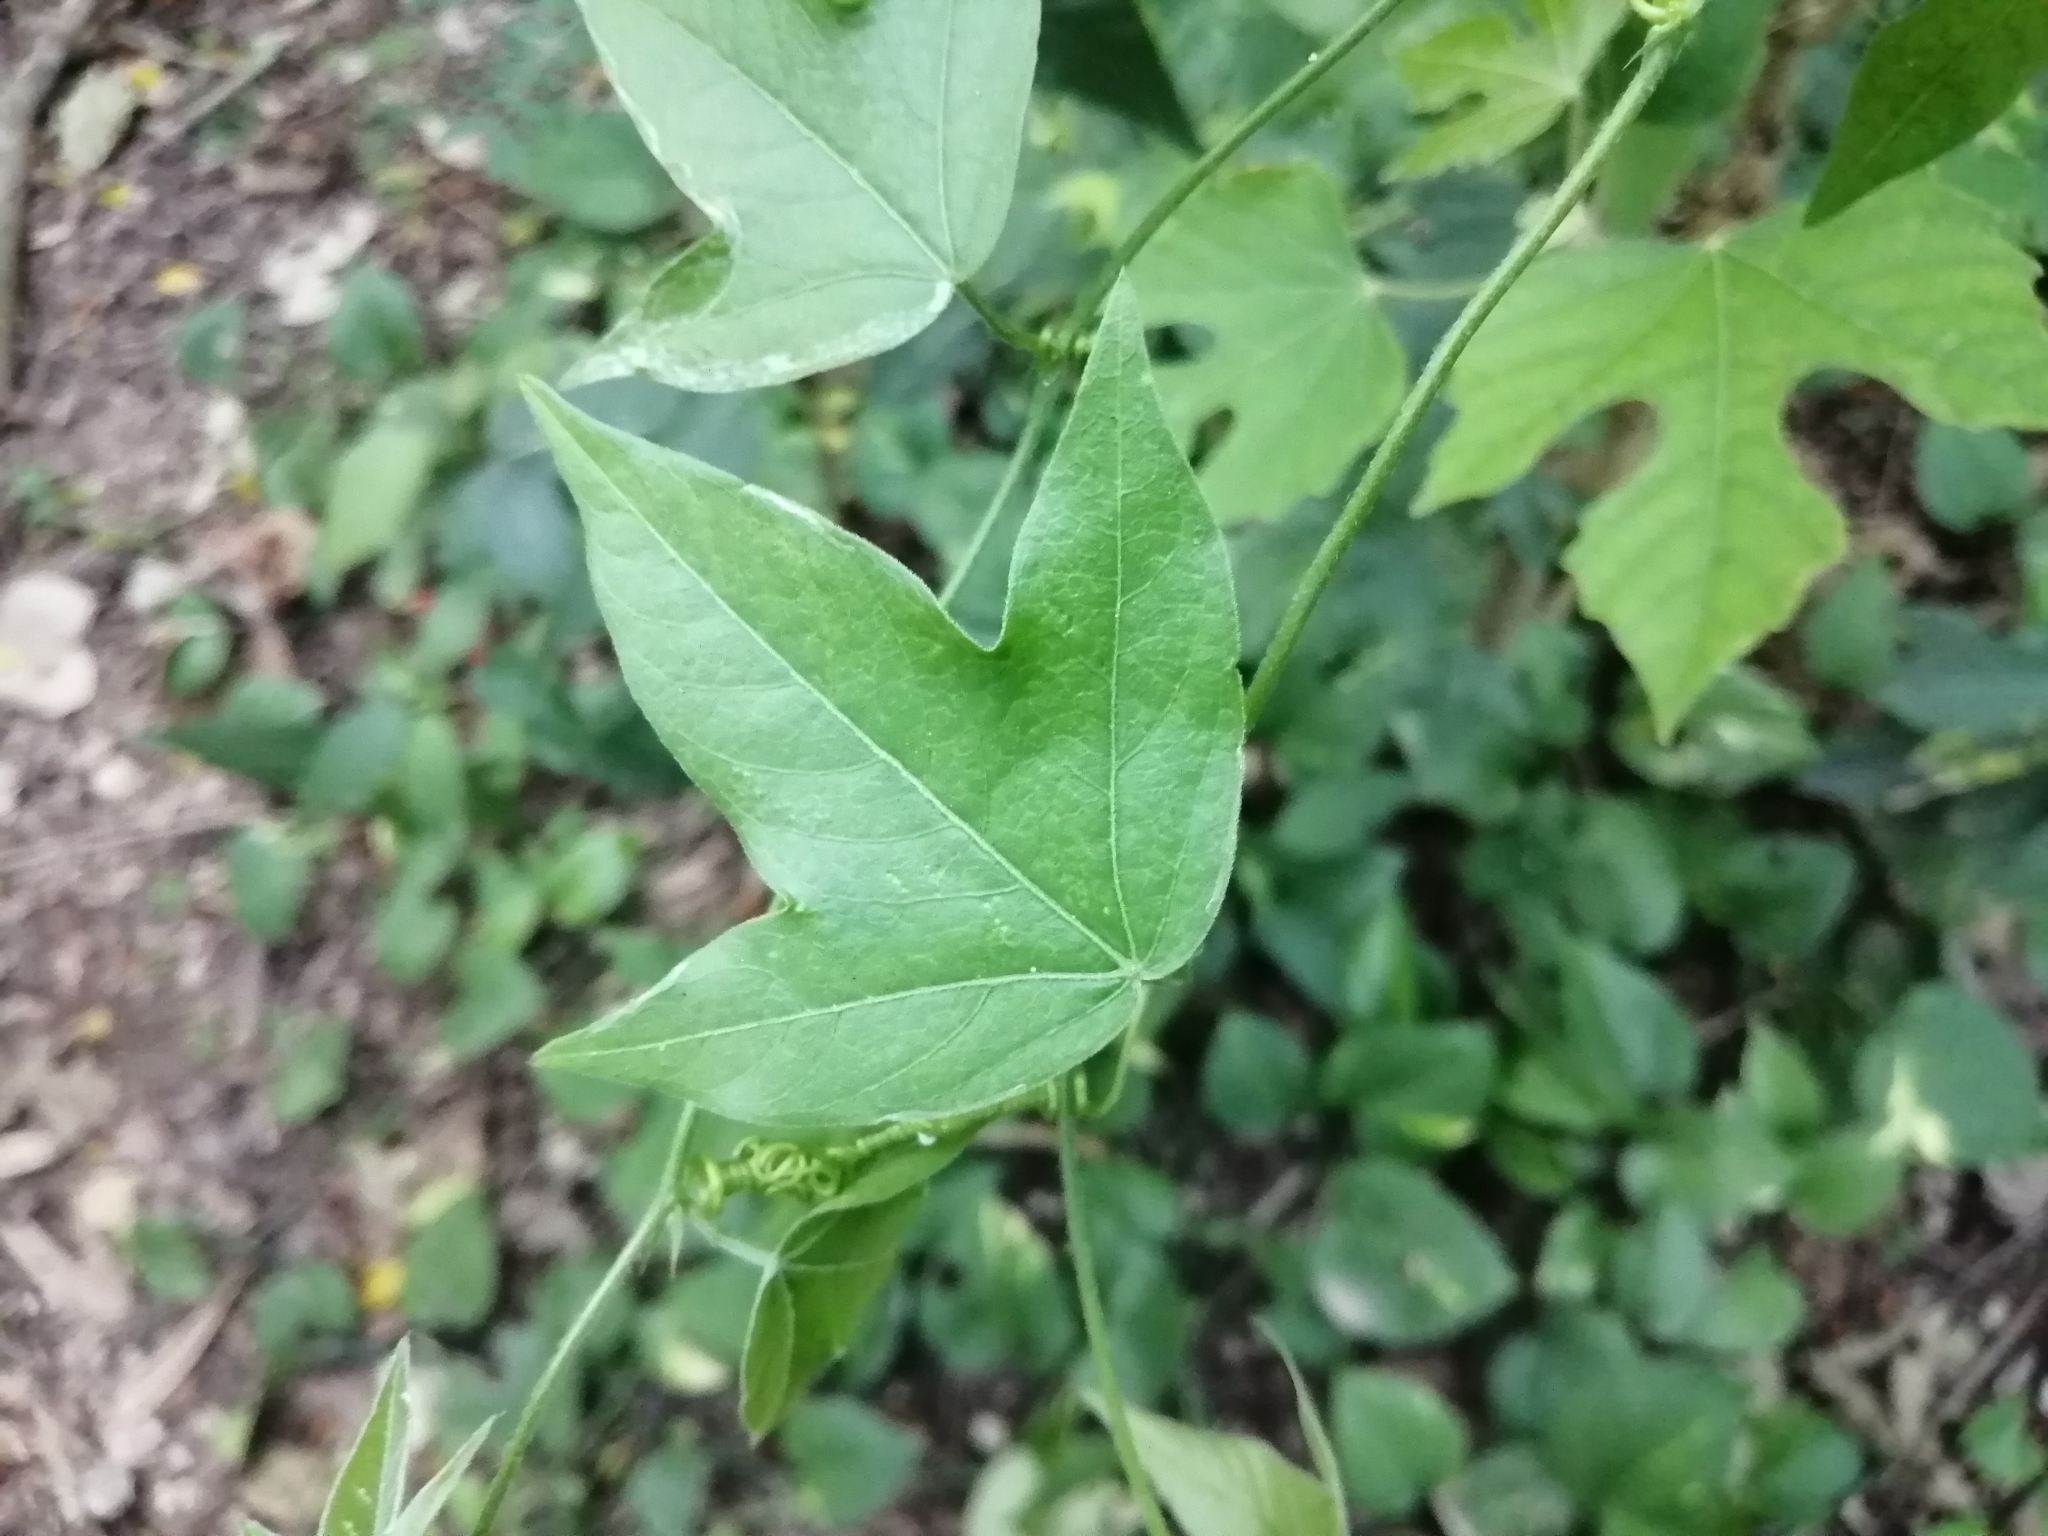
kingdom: Plantae
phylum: Tracheophyta
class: Magnoliopsida
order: Malpighiales
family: Passifloraceae
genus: Passiflora
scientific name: Passiflora suberosa
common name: Wild passionfruit
